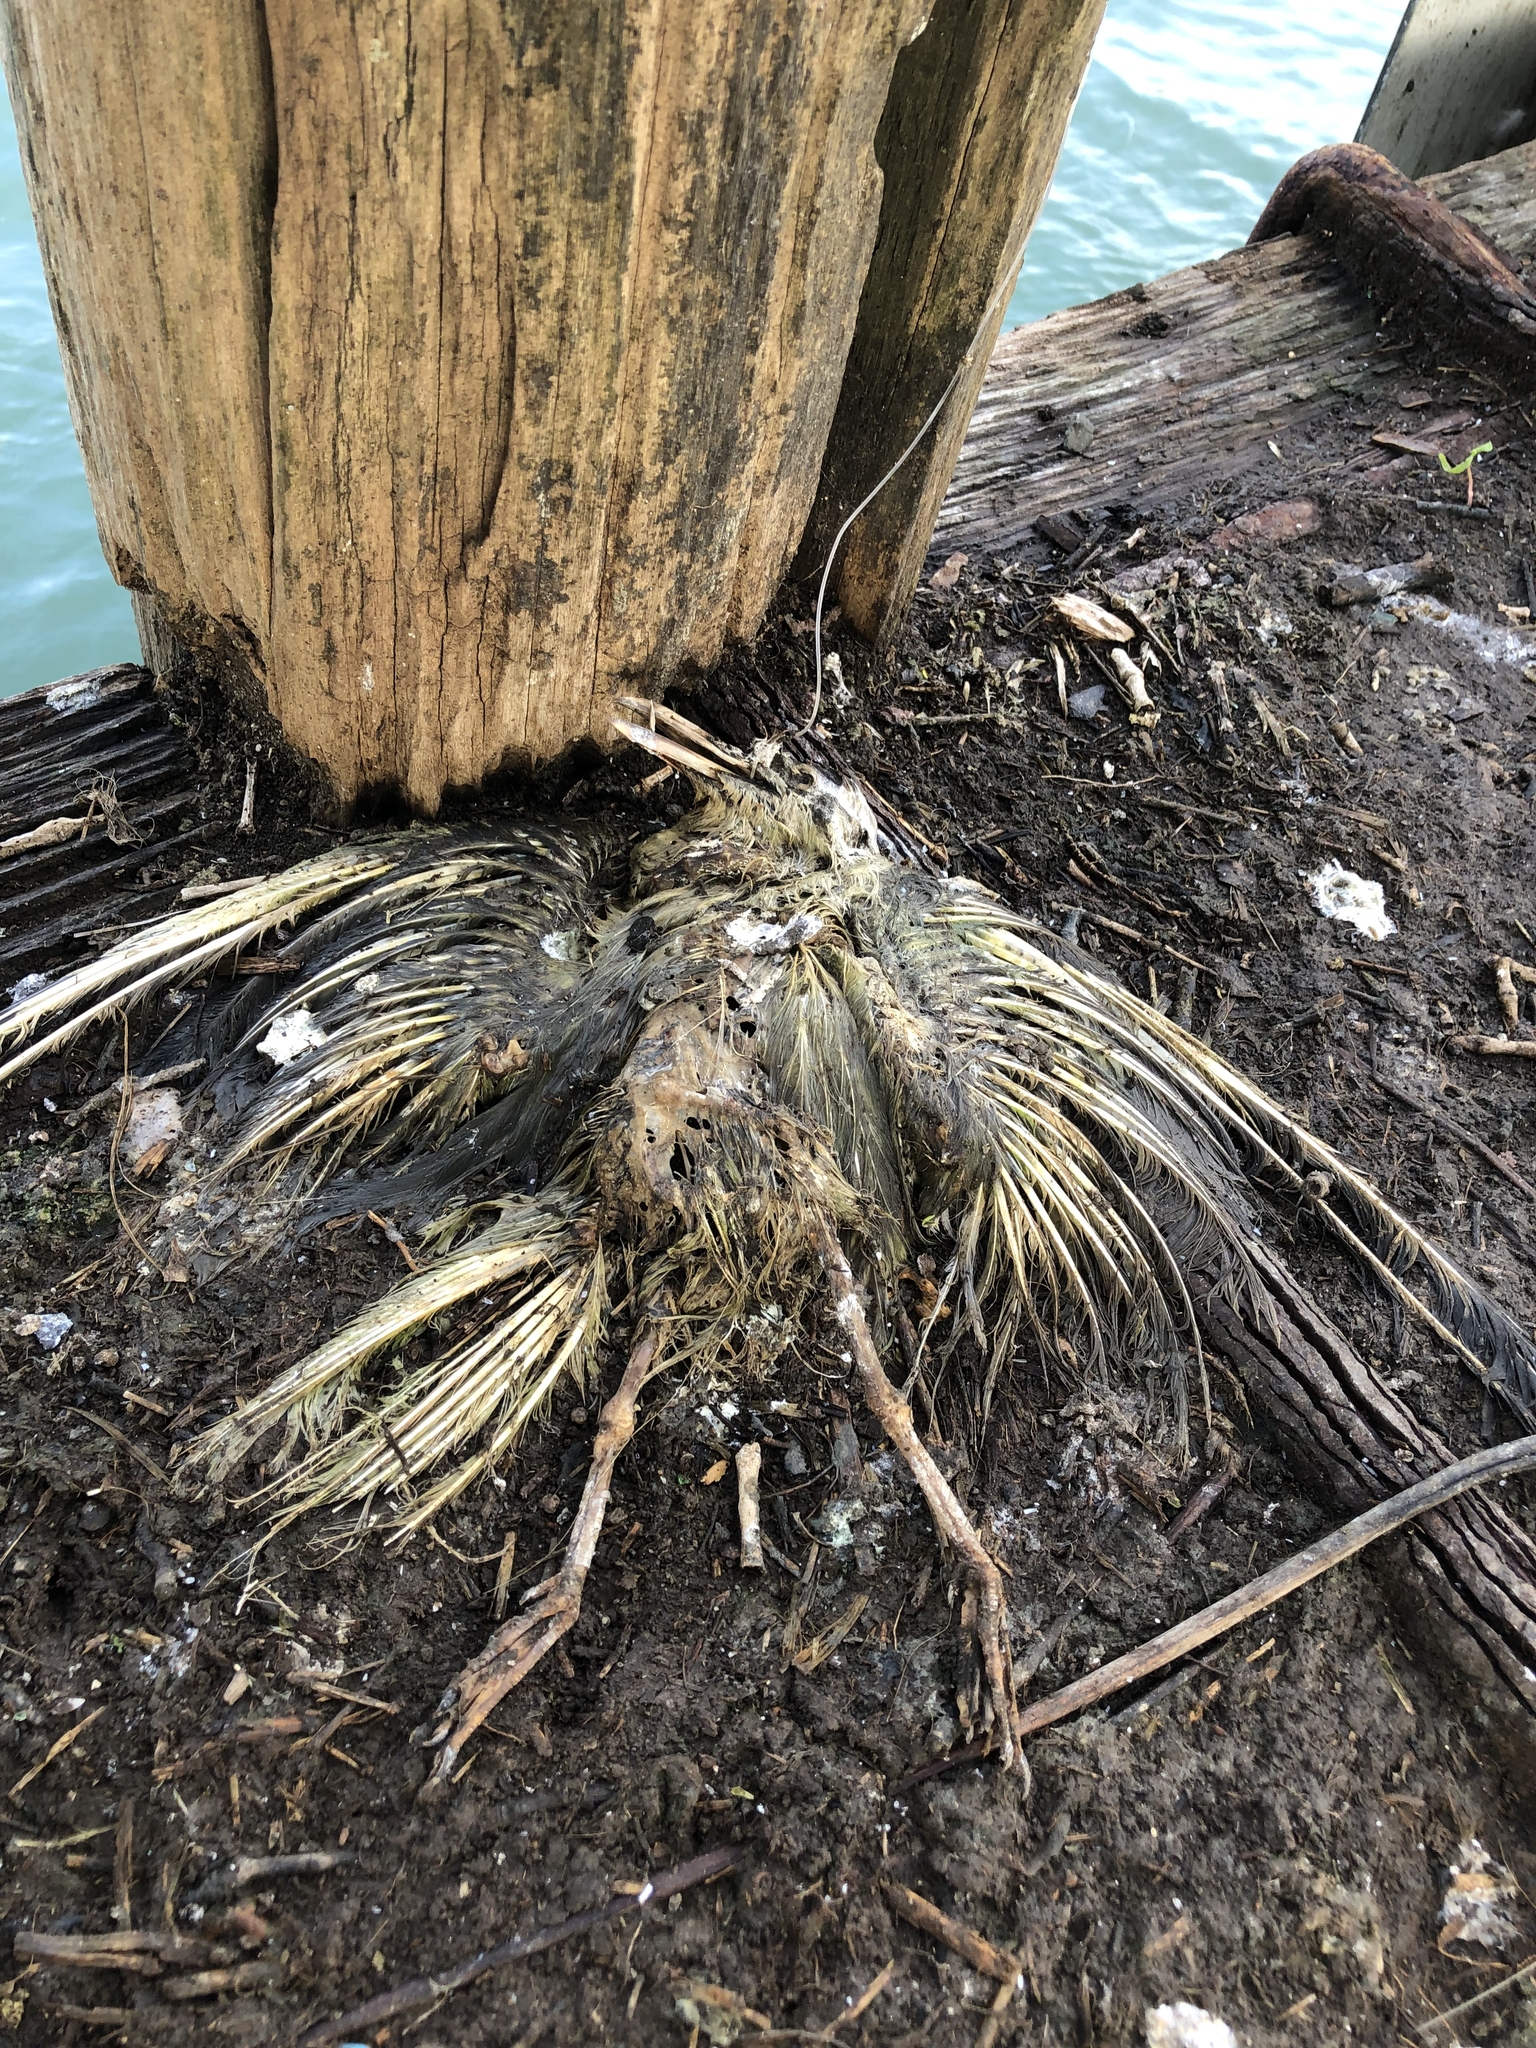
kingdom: Animalia
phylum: Chordata
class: Aves
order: Charadriiformes
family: Laridae
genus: Chroicocephalus
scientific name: Chroicocephalus novaehollandiae
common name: Silver gull
